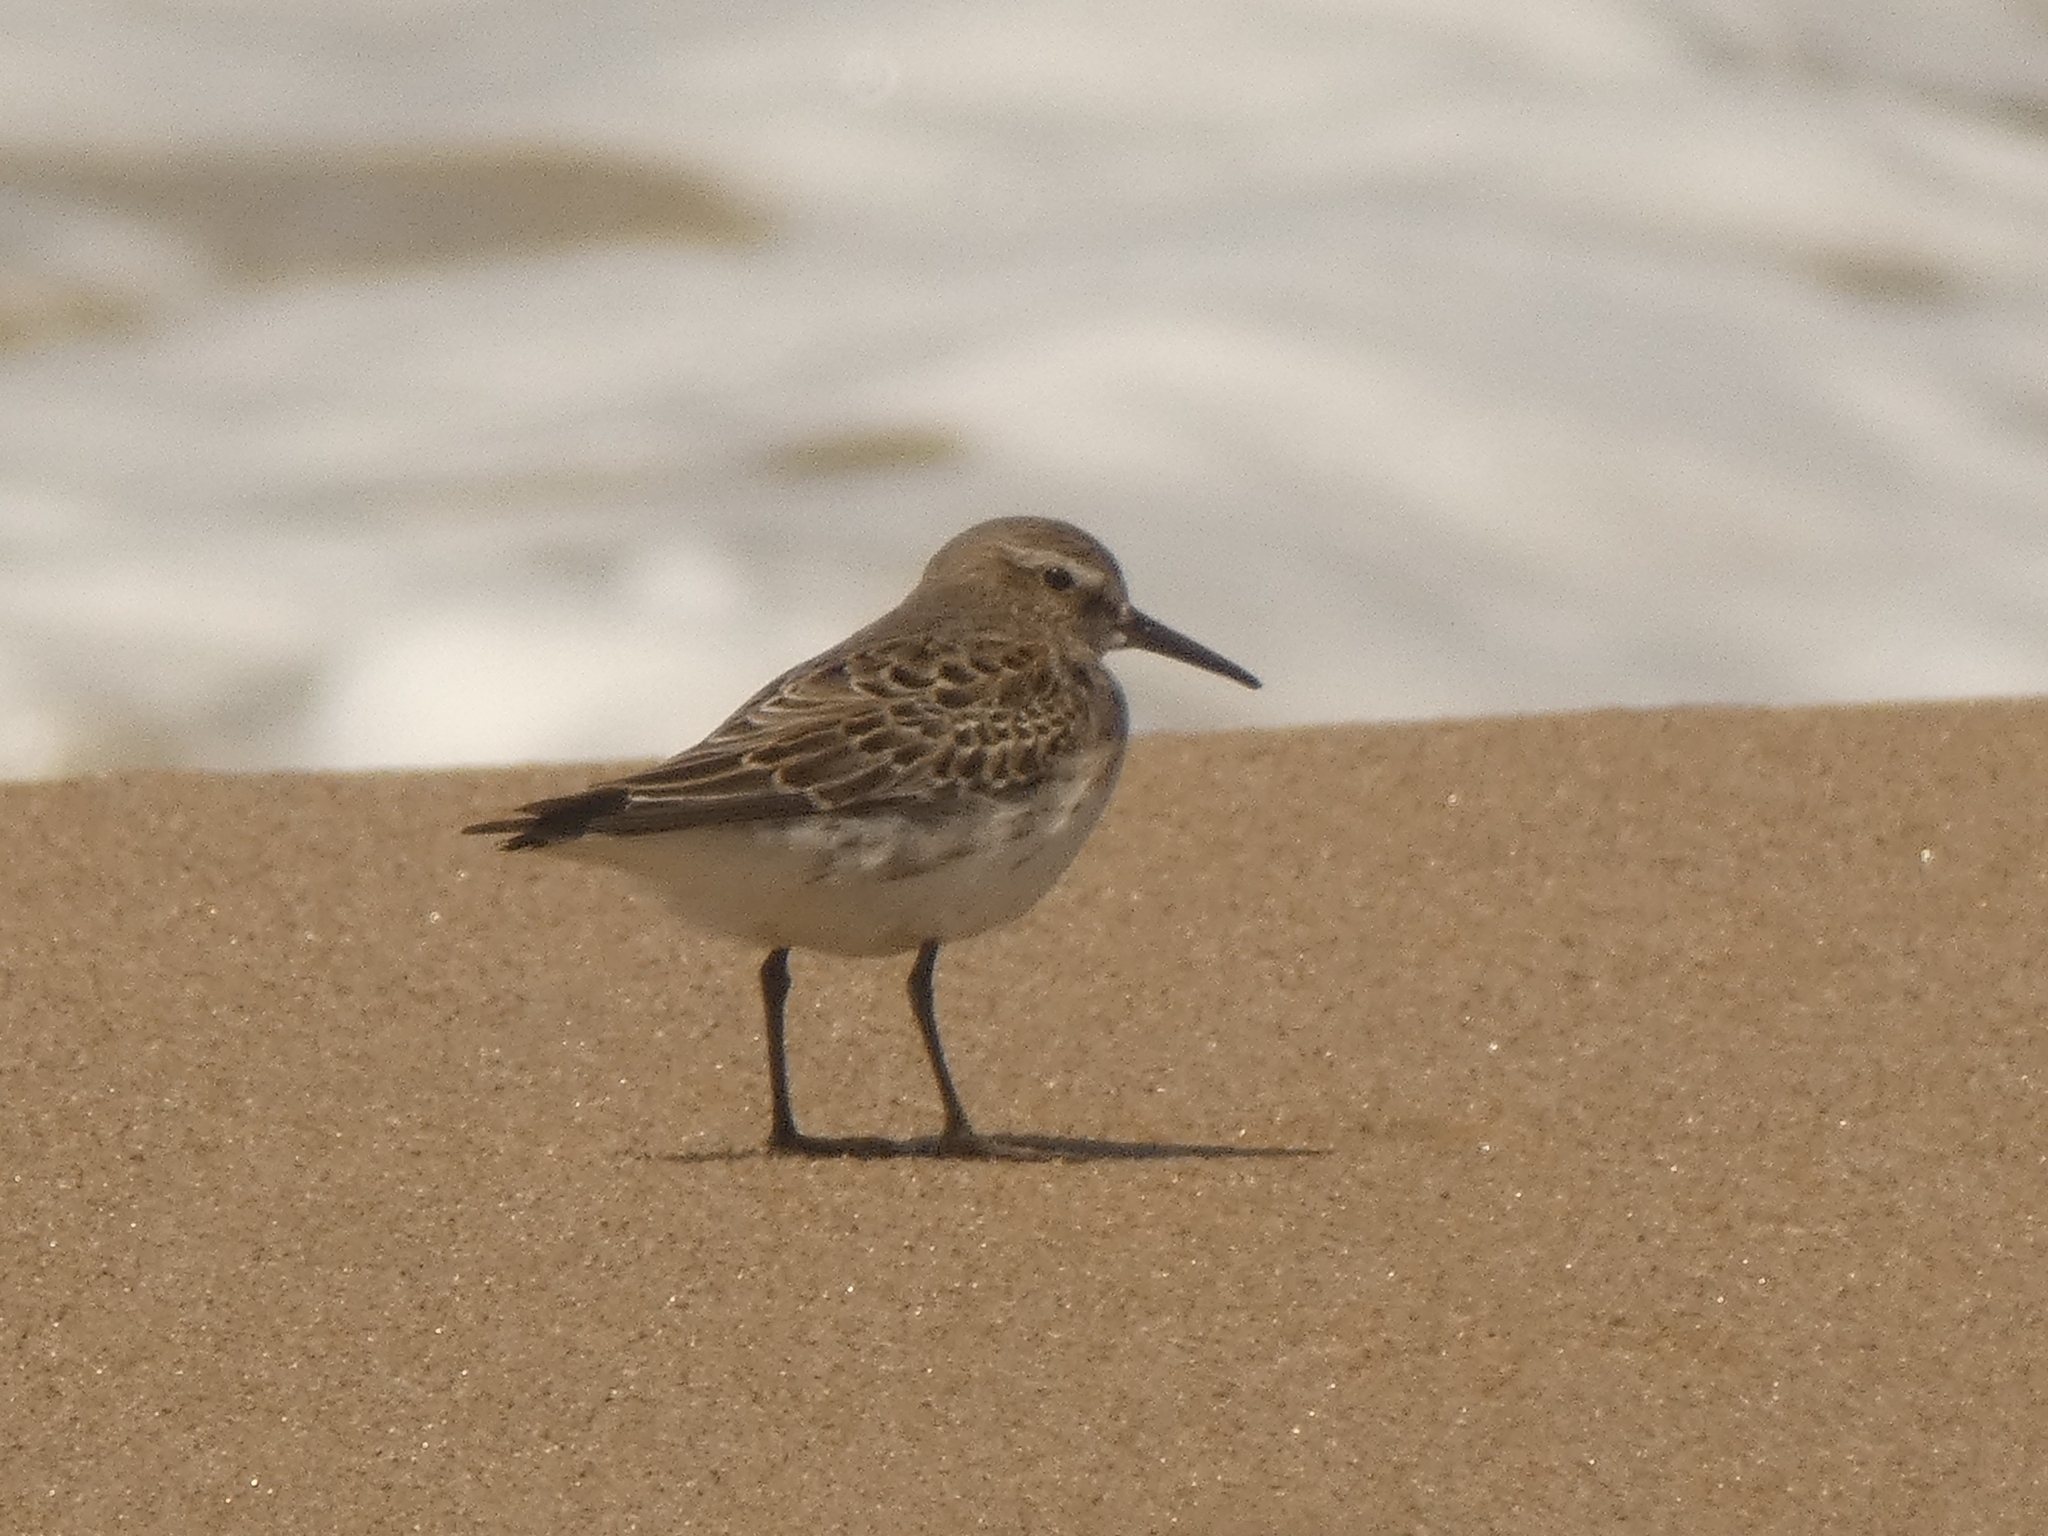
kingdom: Animalia
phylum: Chordata
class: Aves
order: Charadriiformes
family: Scolopacidae
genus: Calidris
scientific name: Calidris fuscicollis
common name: White-rumped sandpiper
